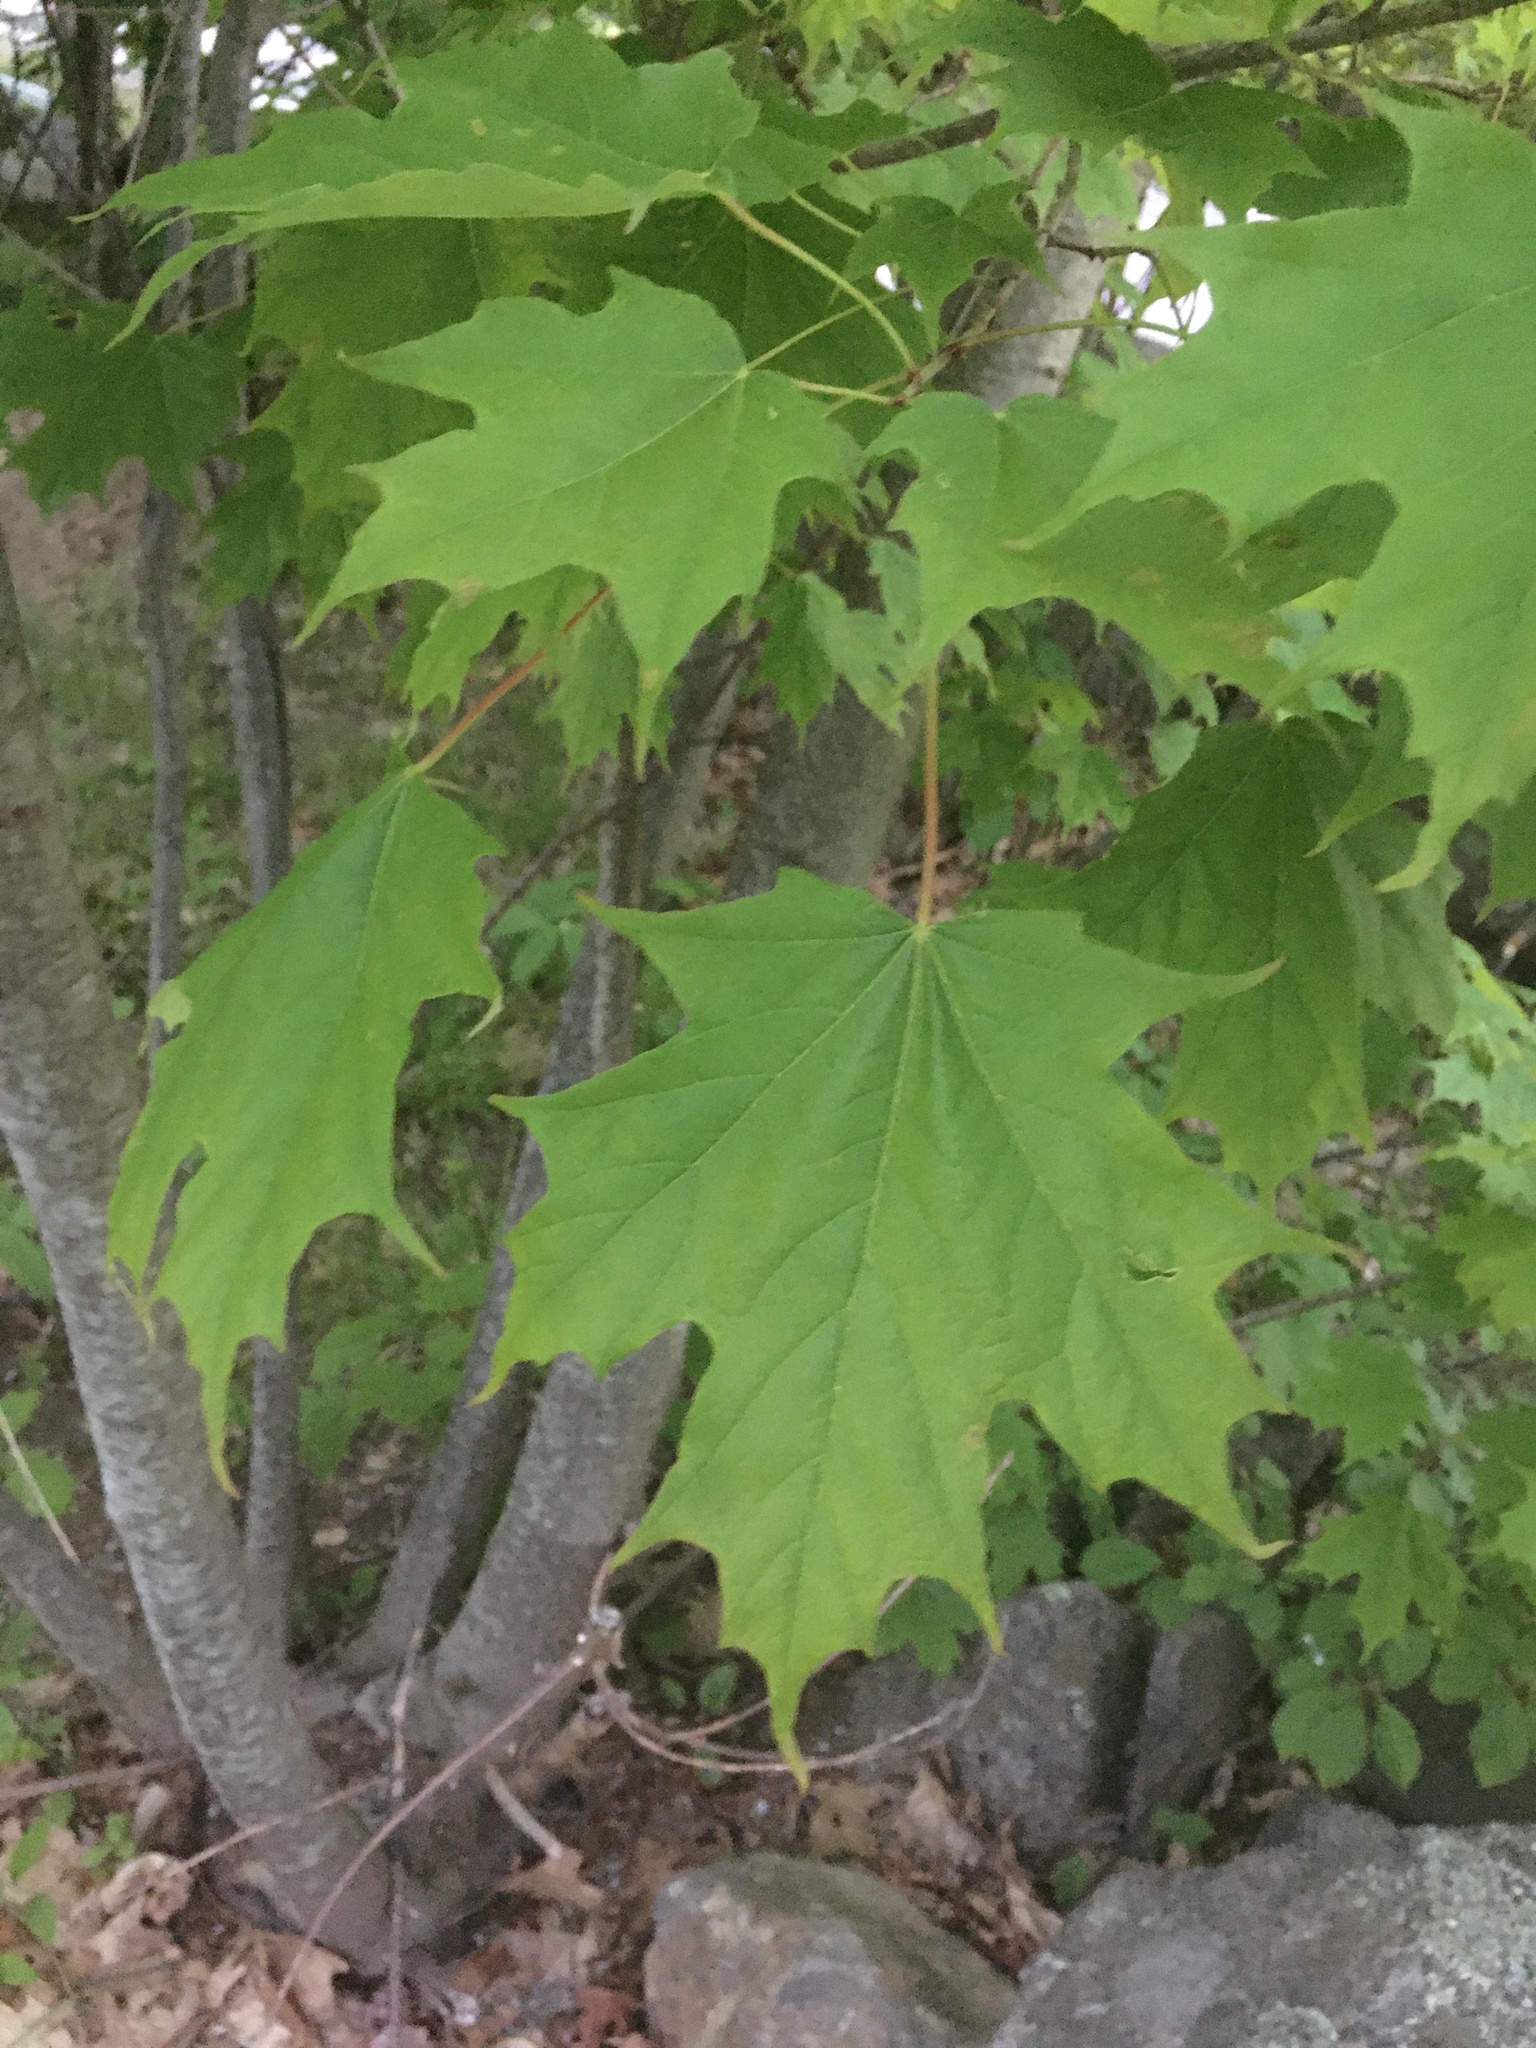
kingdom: Plantae
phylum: Tracheophyta
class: Magnoliopsida
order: Sapindales
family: Sapindaceae
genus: Acer
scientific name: Acer saccharum
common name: Sugar maple
